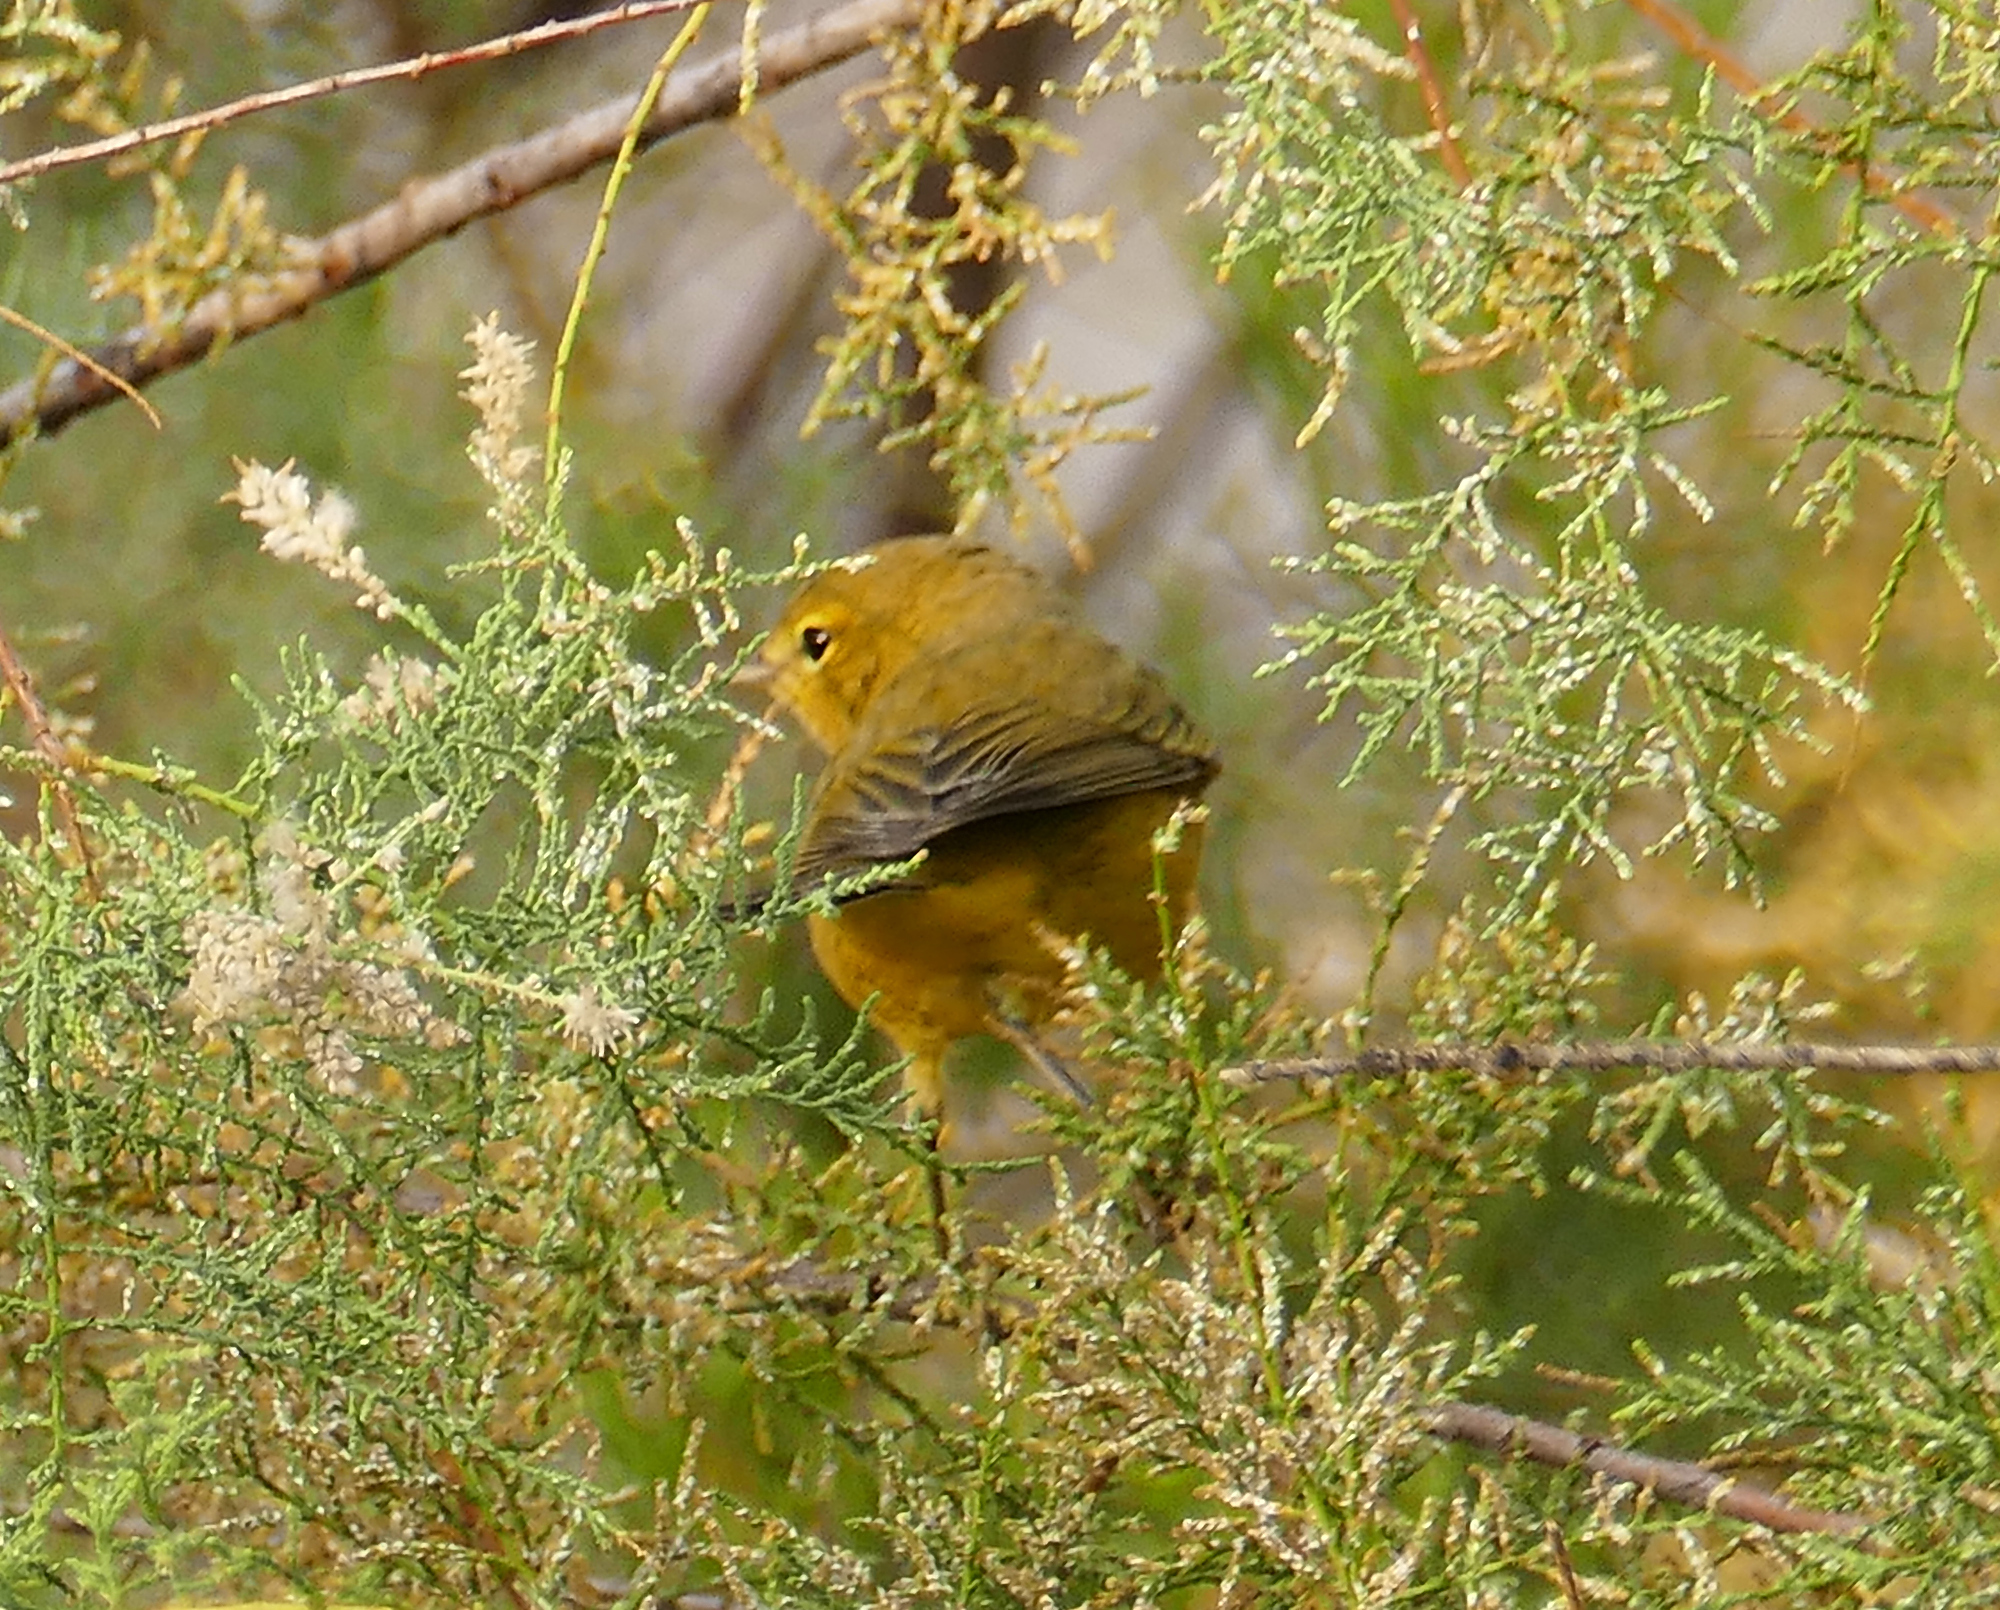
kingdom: Animalia
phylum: Chordata
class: Aves
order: Passeriformes
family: Parulidae
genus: Leiothlypis
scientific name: Leiothlypis celata
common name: Orange-crowned warbler
